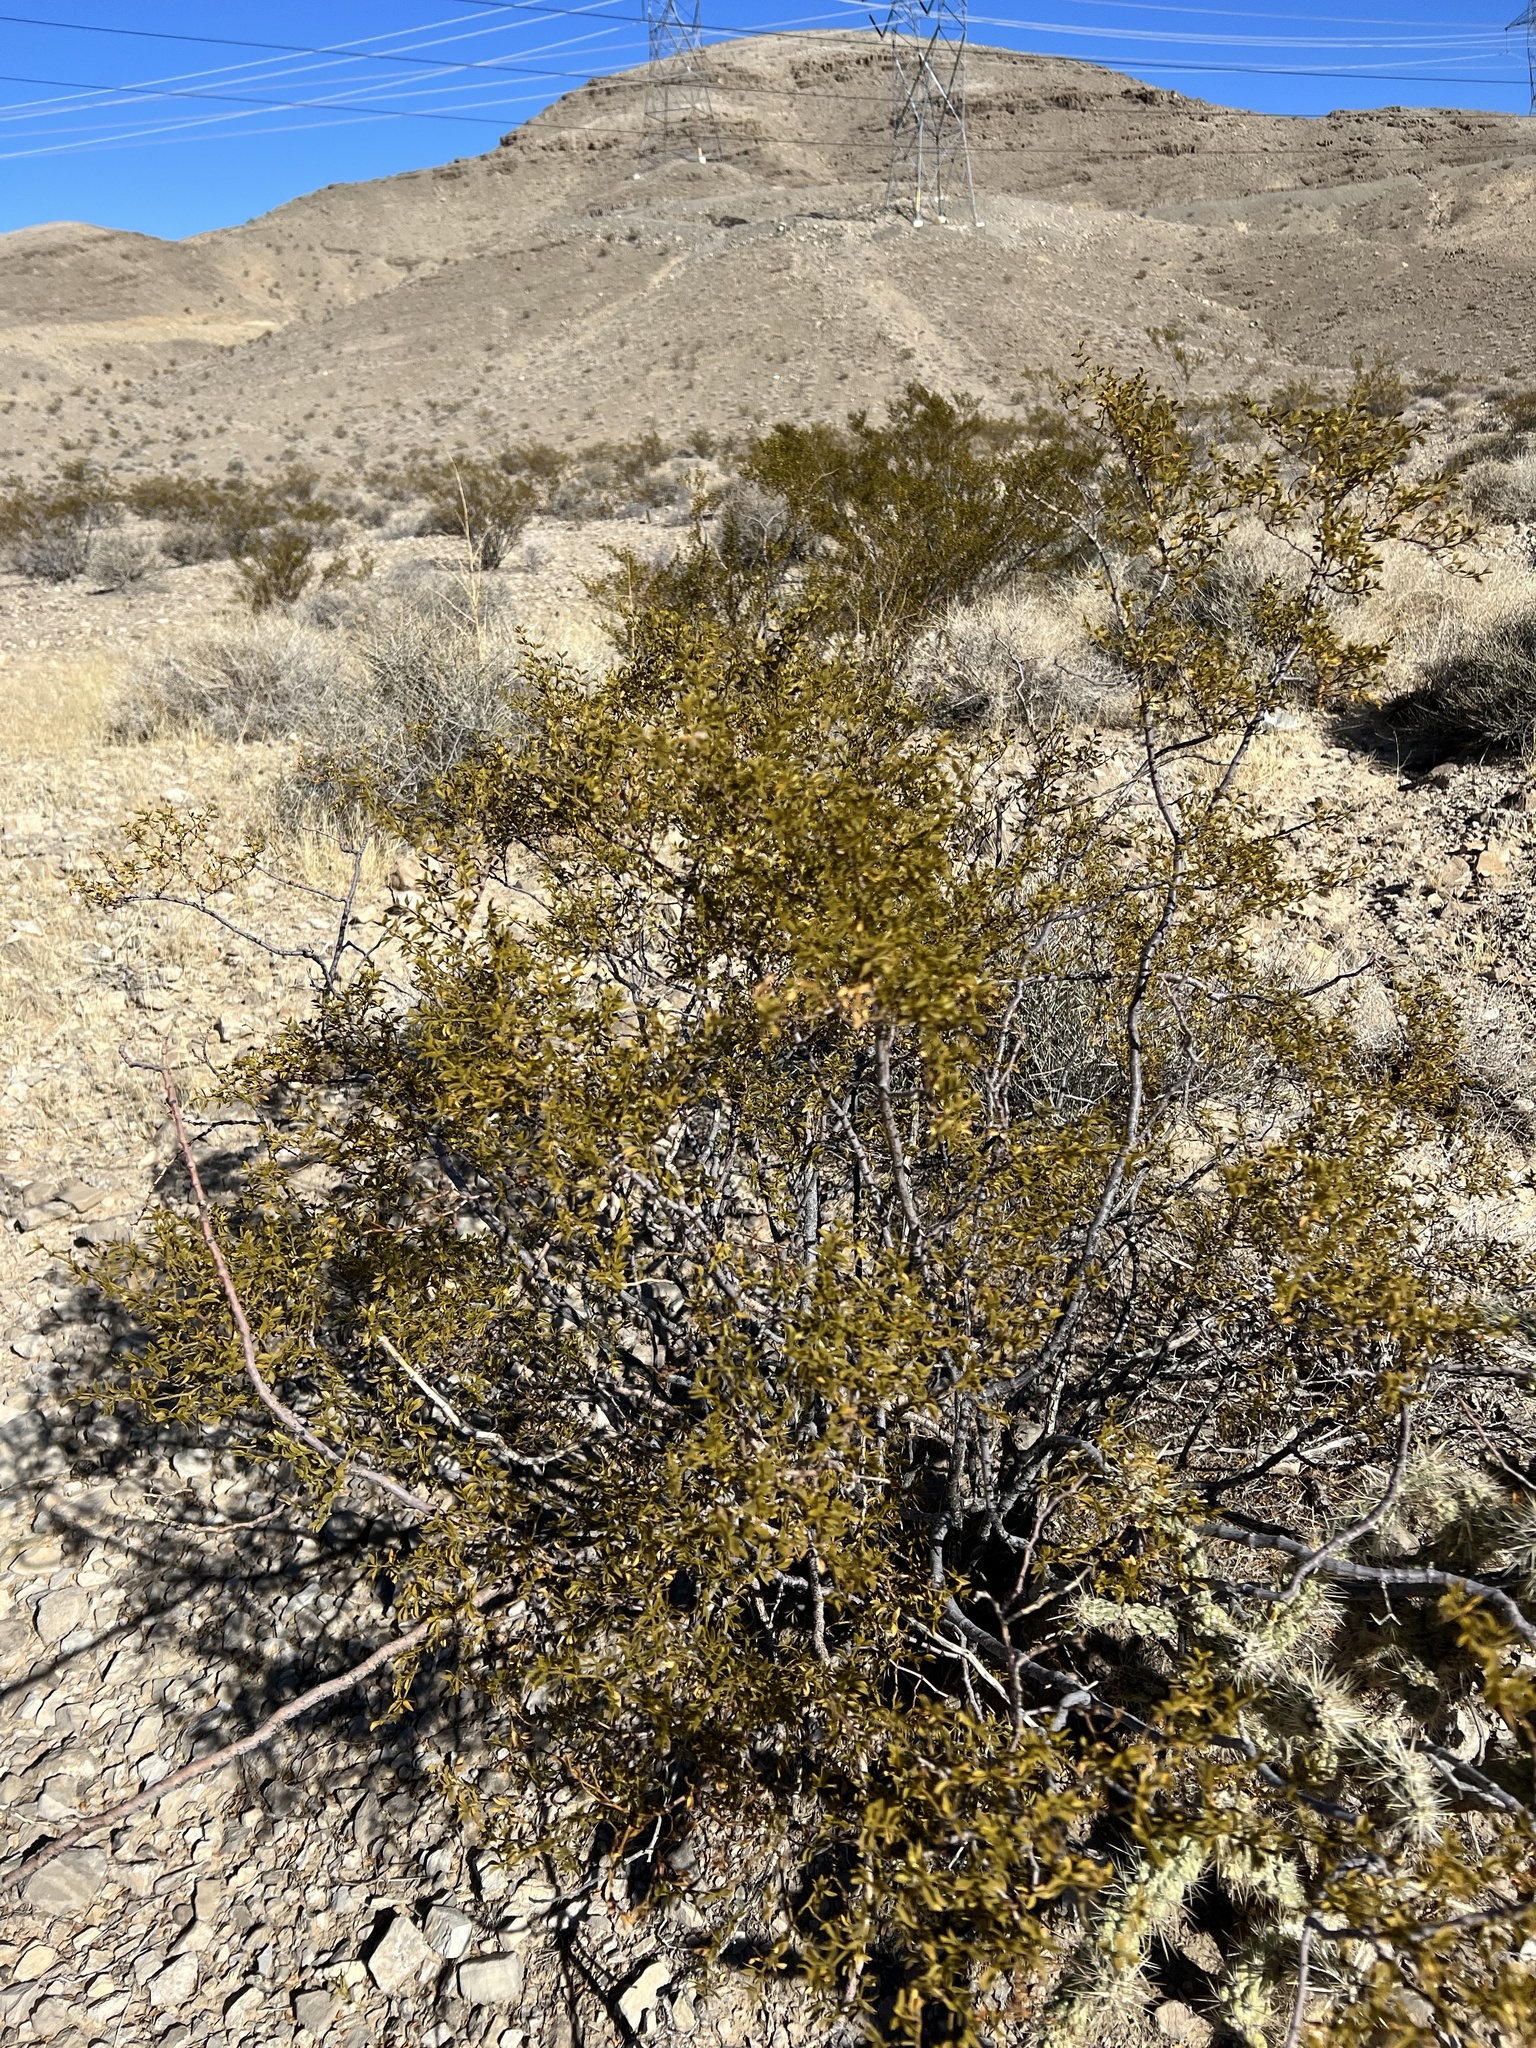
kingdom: Plantae
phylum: Tracheophyta
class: Magnoliopsida
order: Zygophyllales
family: Zygophyllaceae
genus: Larrea
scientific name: Larrea tridentata
